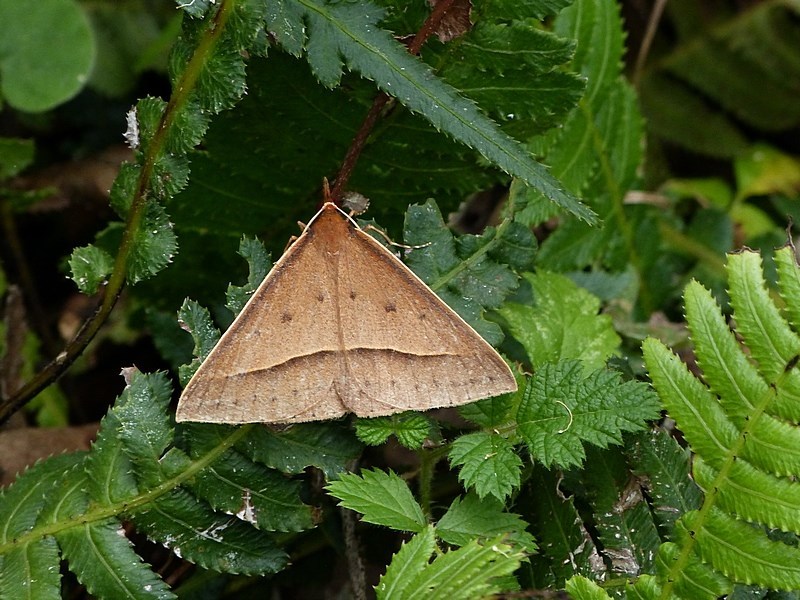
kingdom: Animalia
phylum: Arthropoda
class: Insecta
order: Lepidoptera
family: Geometridae
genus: Epidesmia
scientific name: Epidesmia chilonaria
